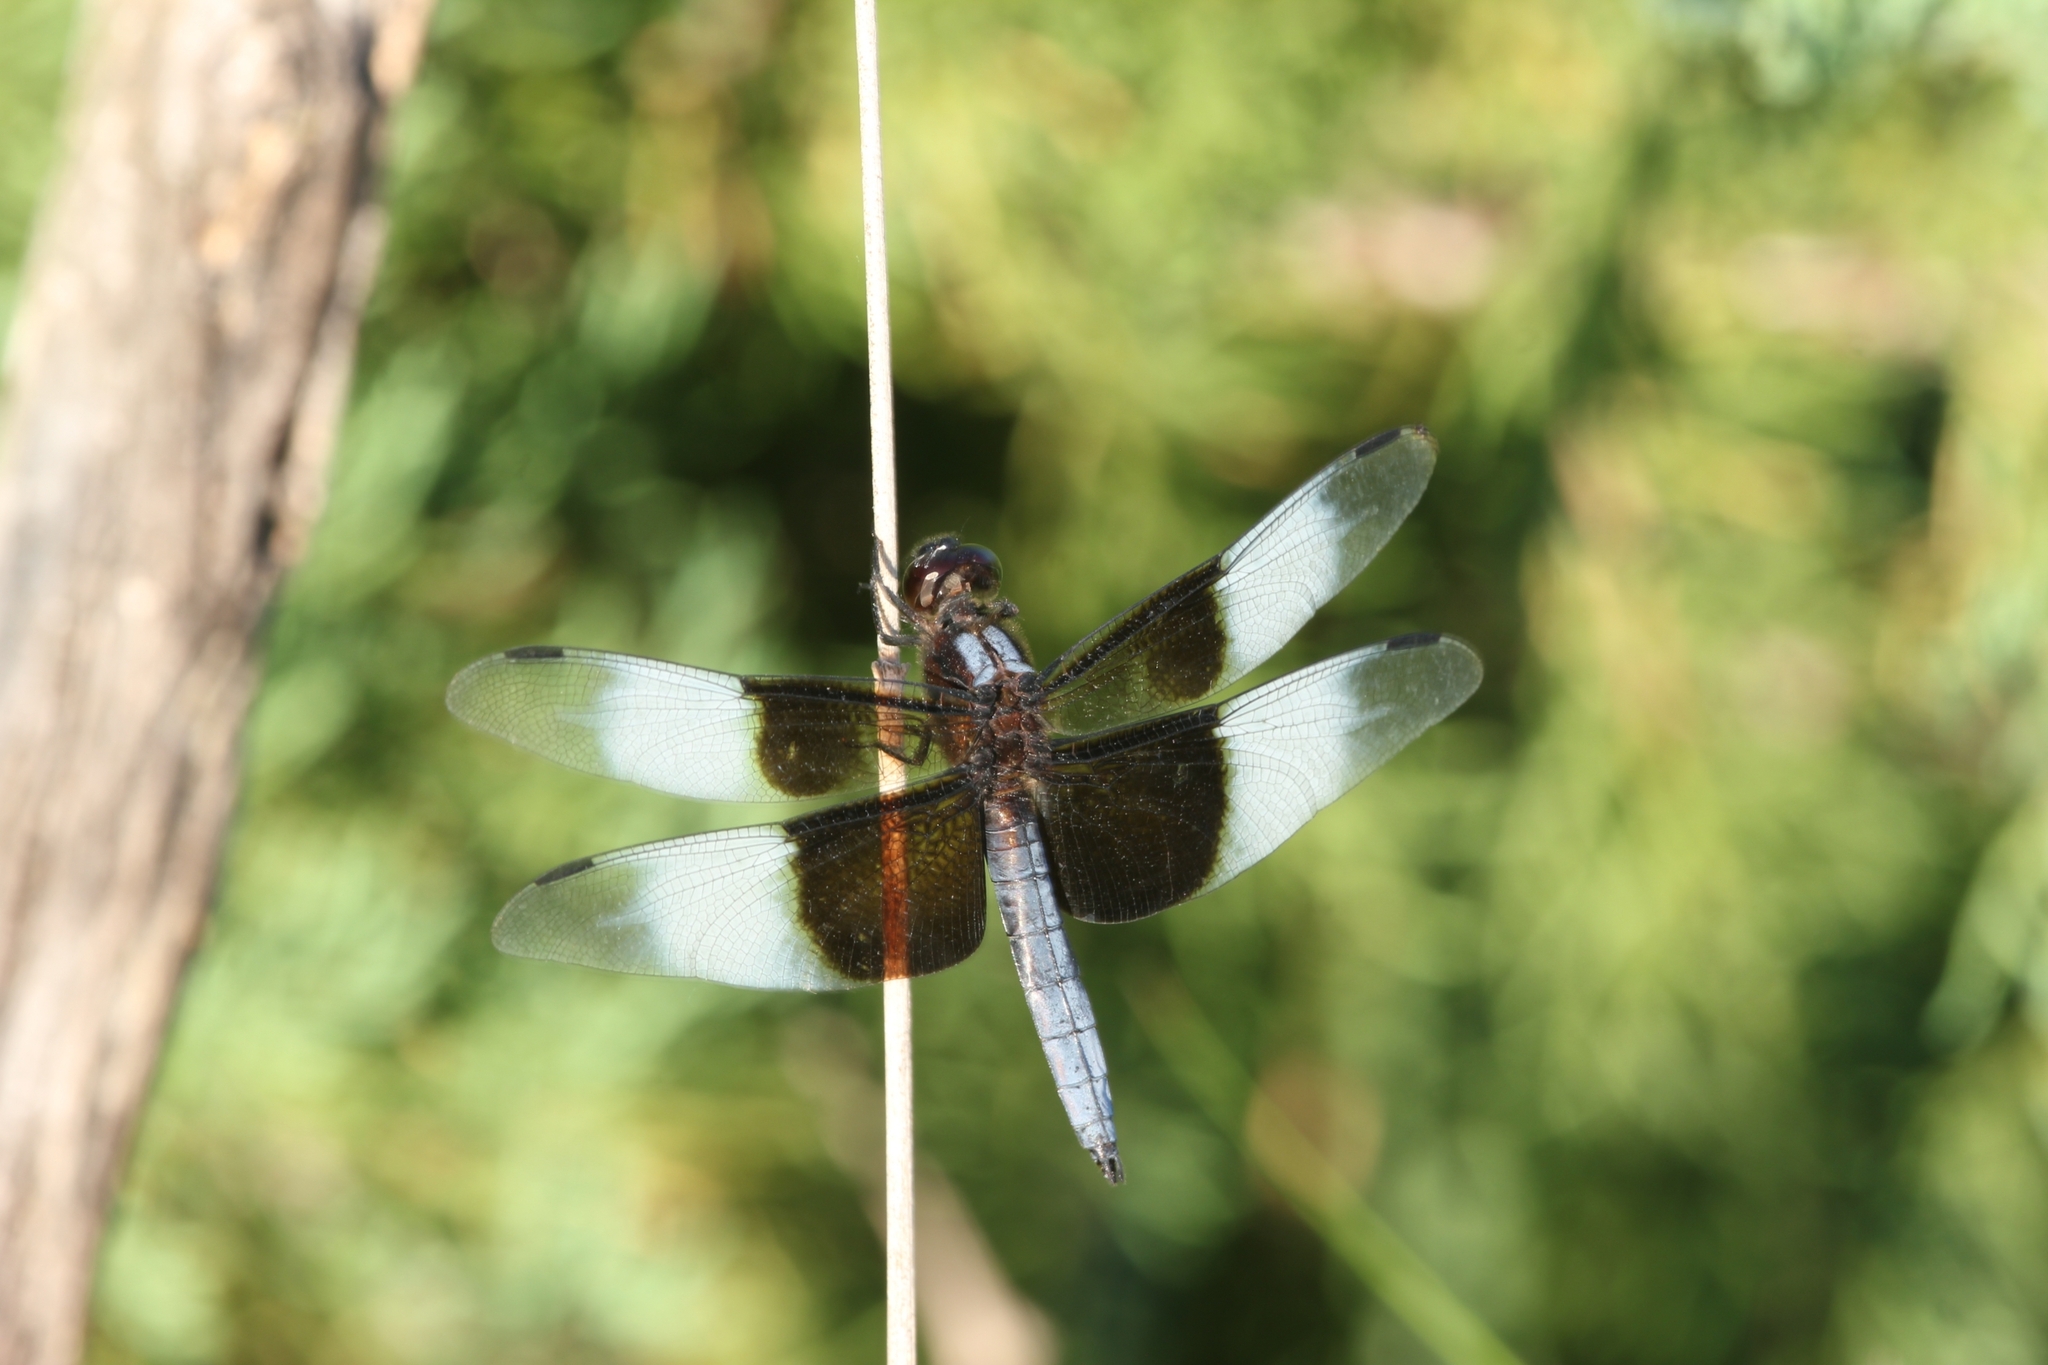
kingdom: Animalia
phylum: Arthropoda
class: Insecta
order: Odonata
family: Libellulidae
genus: Libellula
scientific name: Libellula luctuosa
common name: Widow skimmer
